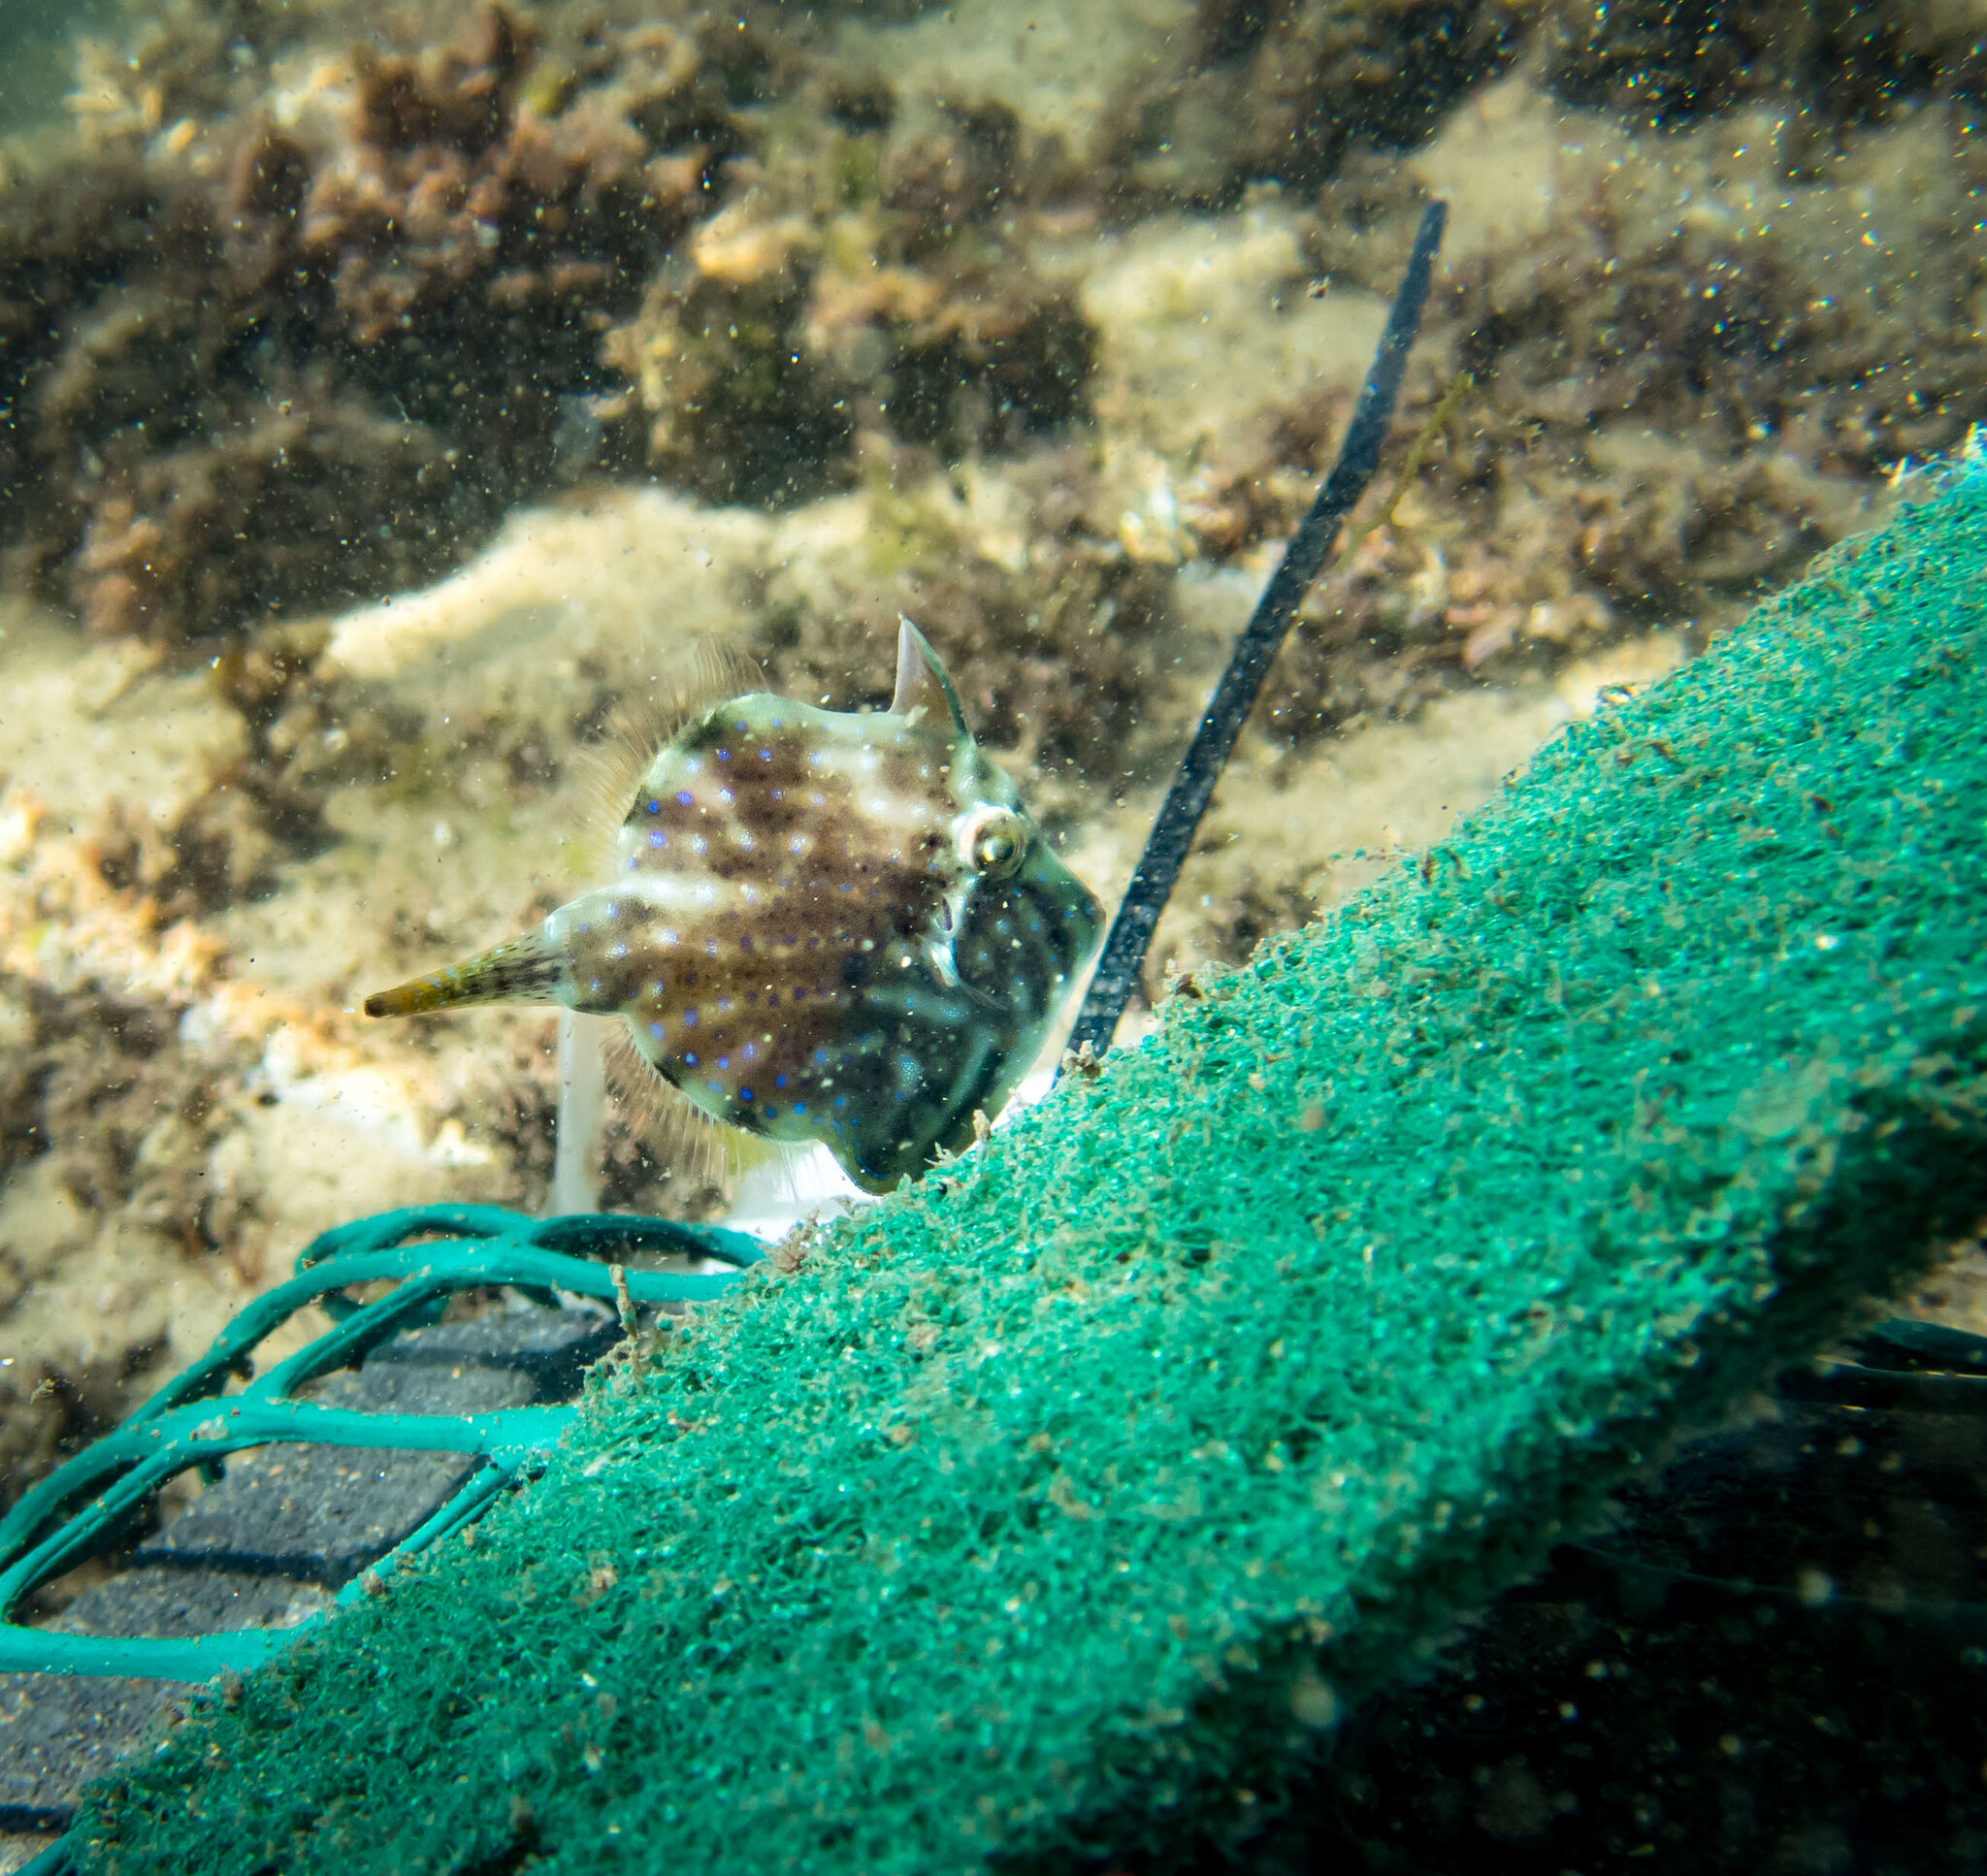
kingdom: Animalia
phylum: Chordata
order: Tetraodontiformes
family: Monacanthidae
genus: Brachaluteres
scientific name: Brachaluteres jacksonianus
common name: Pigmy leatherjacket
